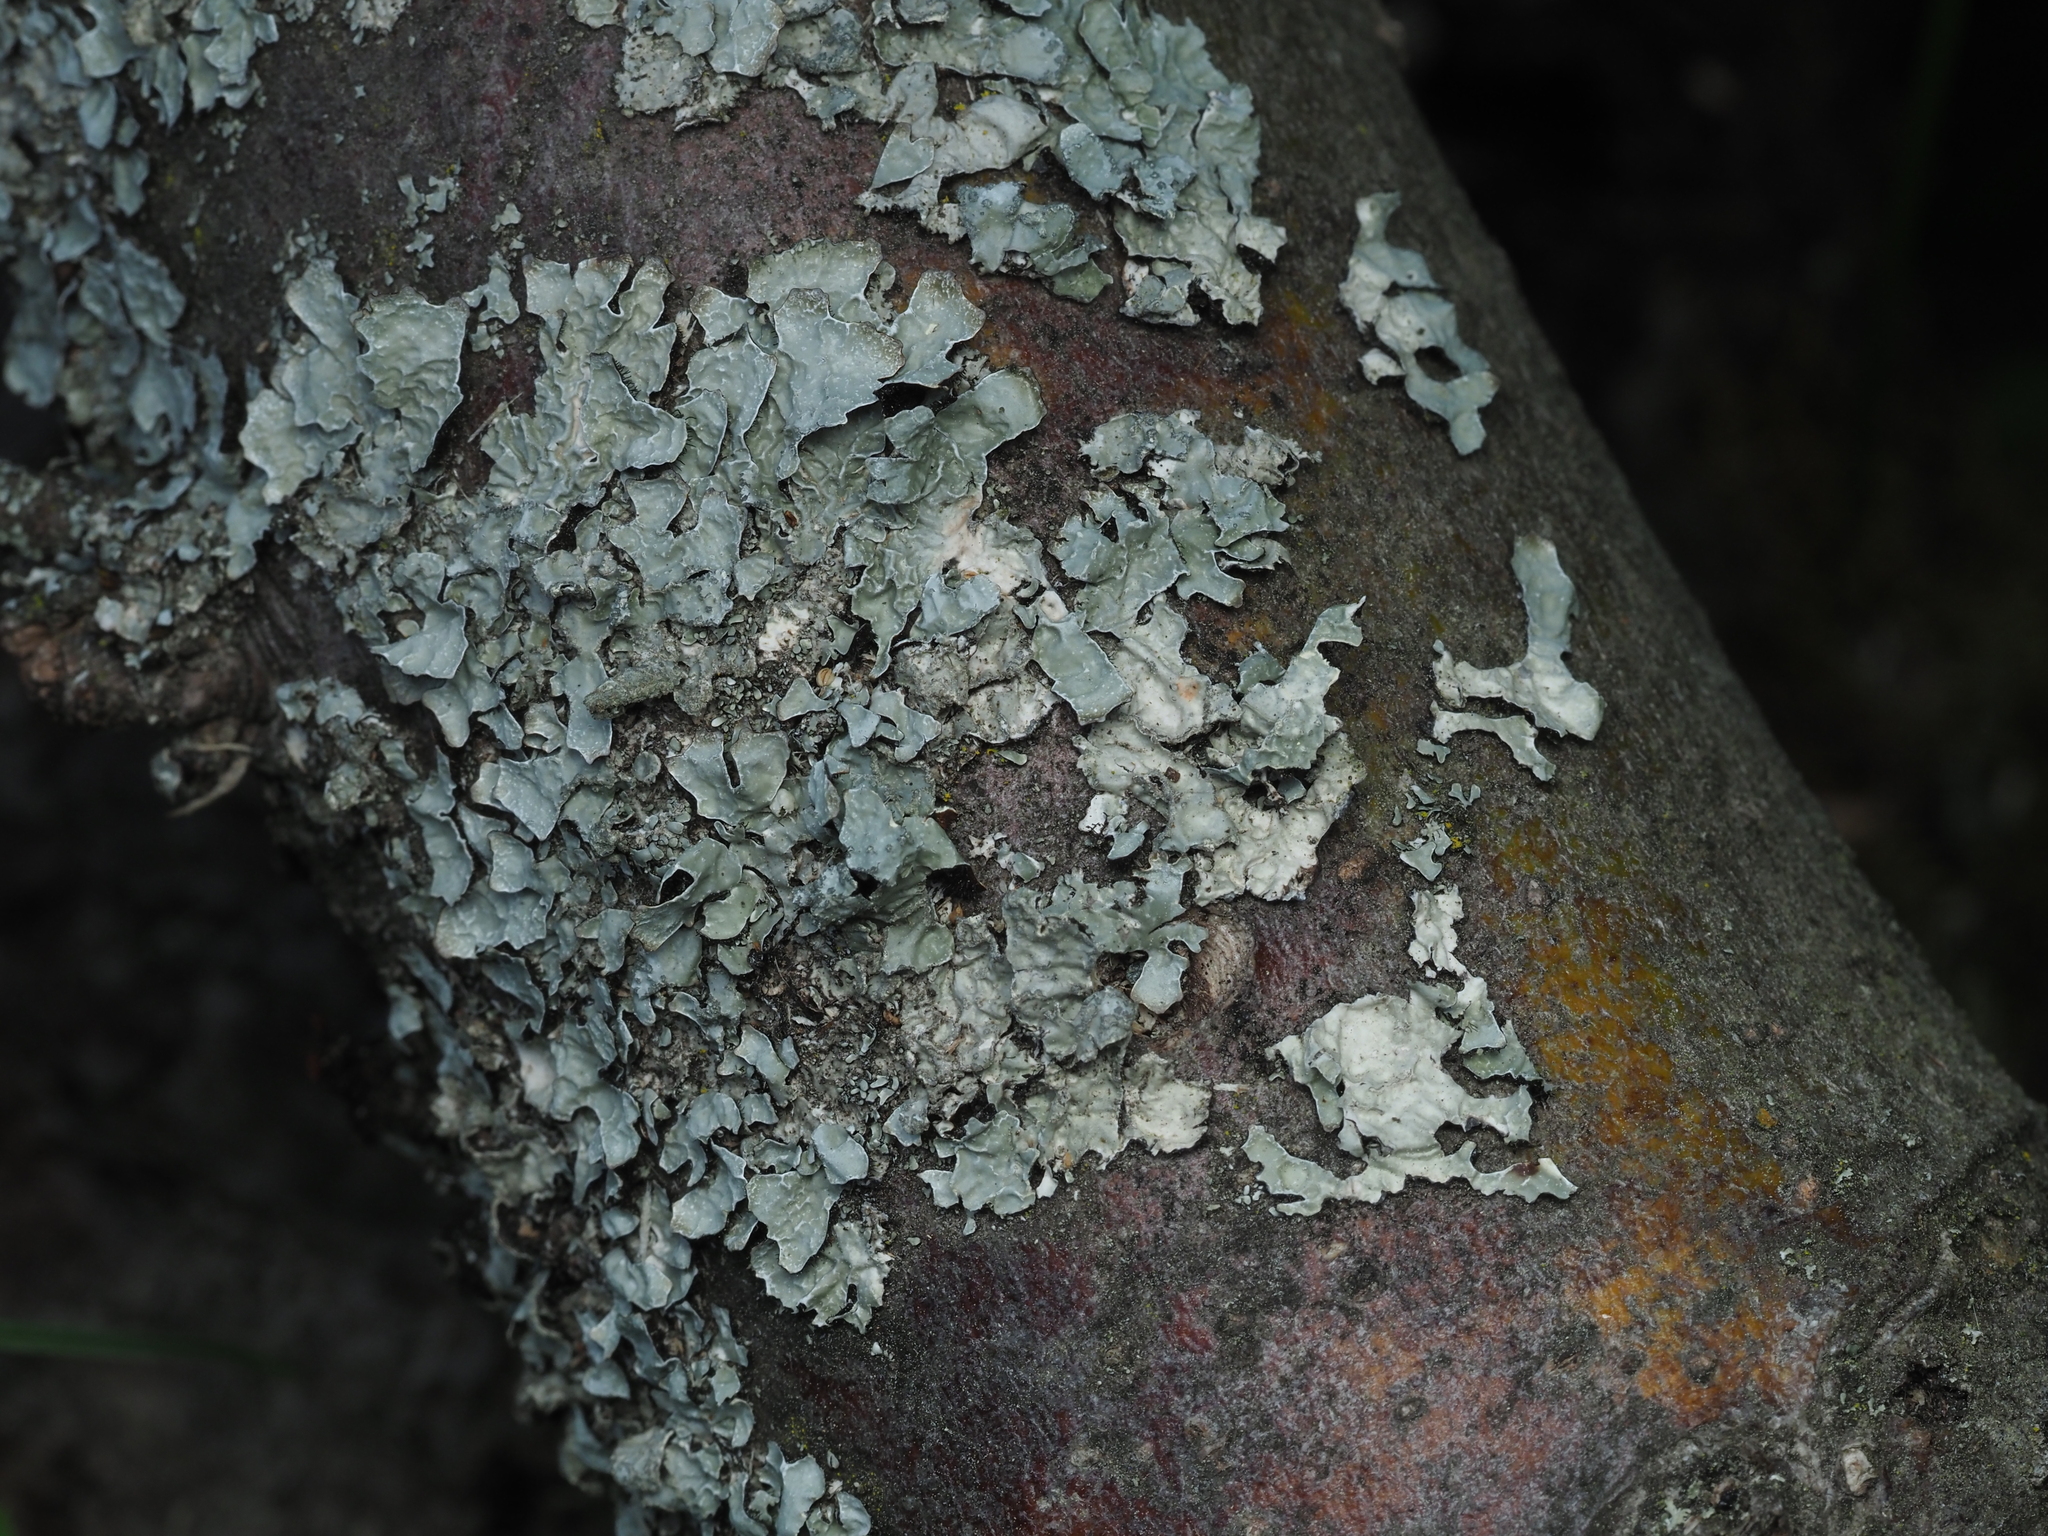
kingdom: Fungi
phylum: Ascomycota
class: Lecanoromycetes
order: Lecanorales
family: Parmeliaceae
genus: Parmelia
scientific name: Parmelia sulcata
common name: Netted shield lichen
